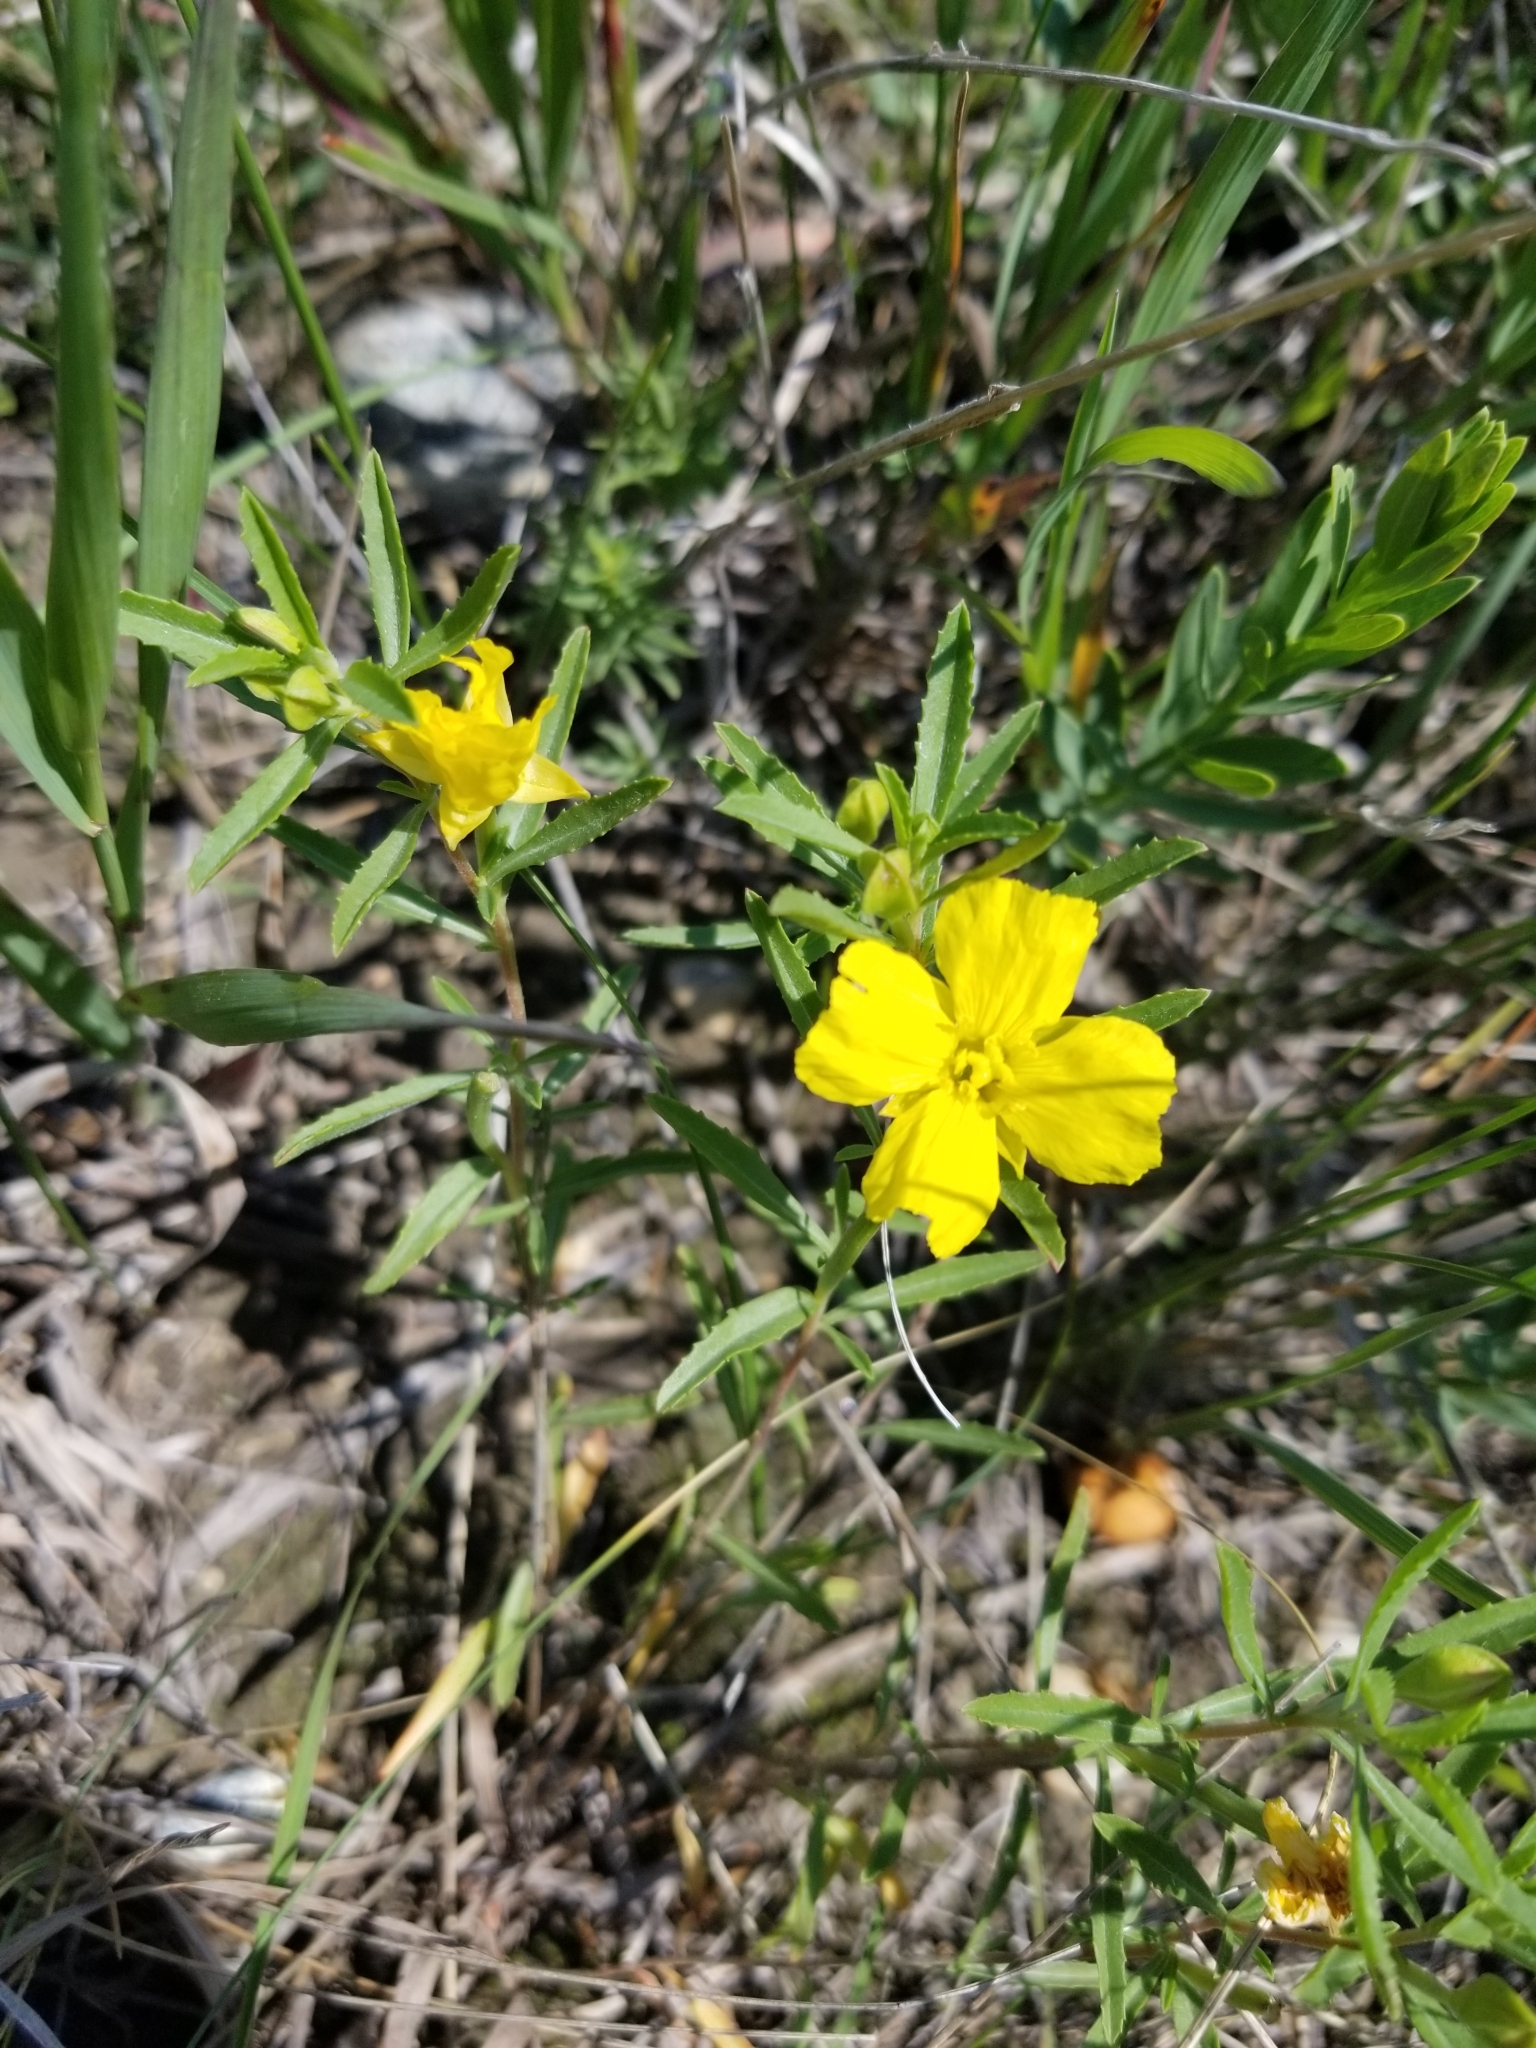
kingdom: Plantae
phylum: Tracheophyta
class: Magnoliopsida
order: Myrtales
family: Onagraceae
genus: Oenothera
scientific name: Oenothera serrulata
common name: Half-shrub calylophus
